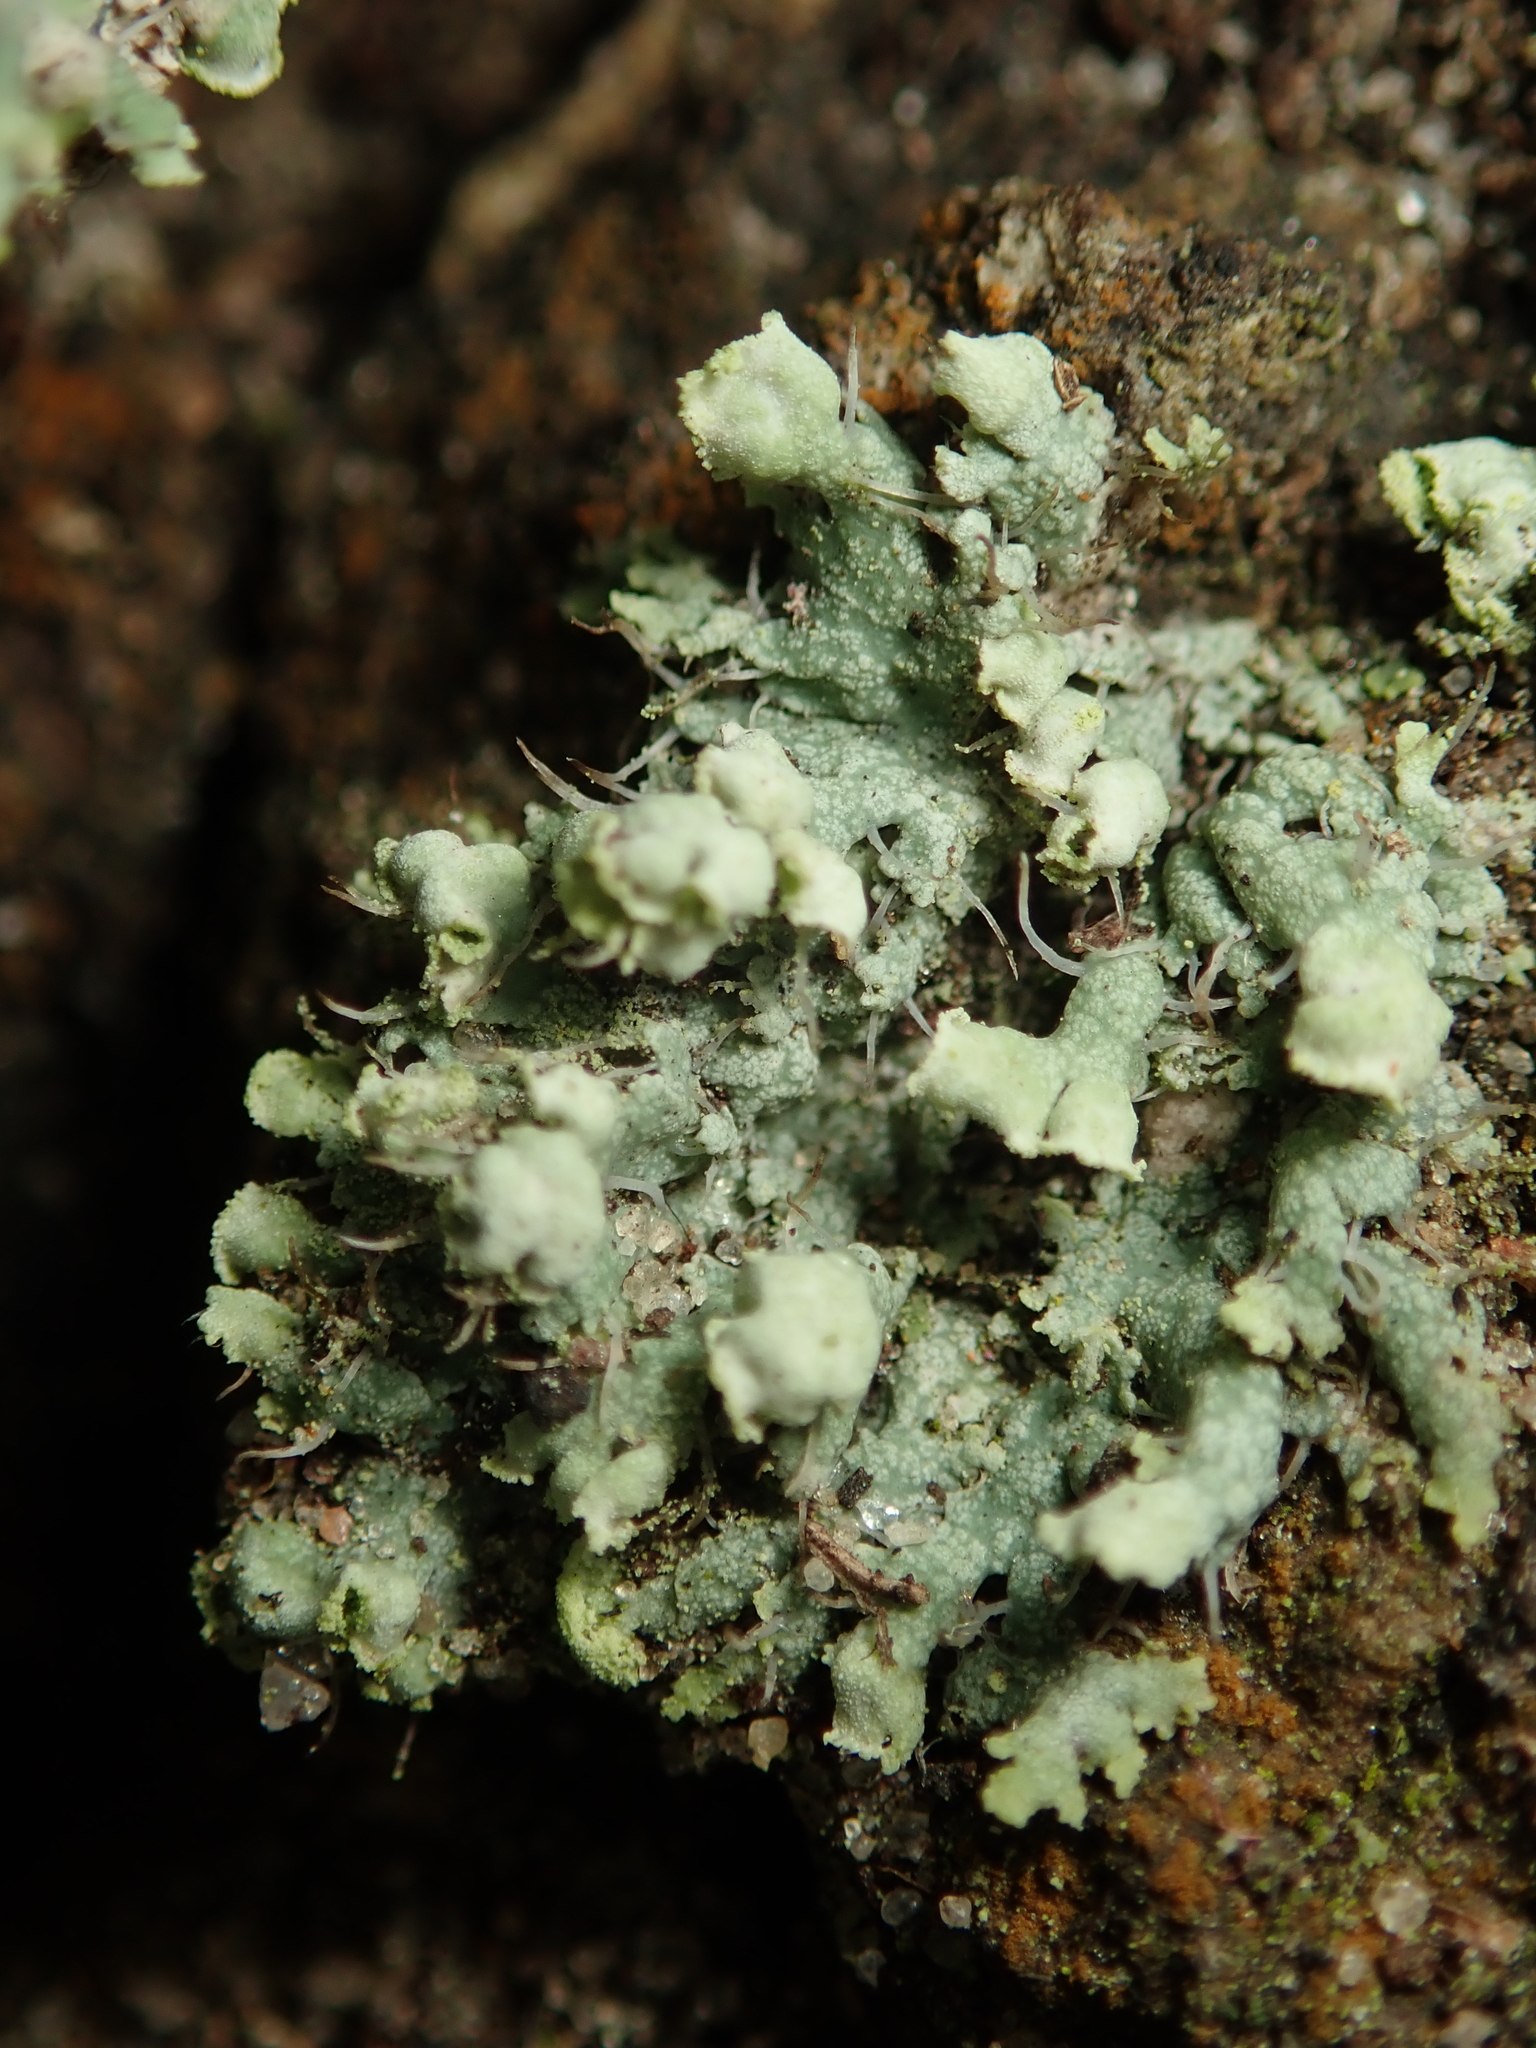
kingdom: Fungi
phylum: Ascomycota
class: Lecanoromycetes
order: Caliciales
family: Physciaceae
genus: Physcia
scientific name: Physcia adscendens
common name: Hooded rosette lichen
